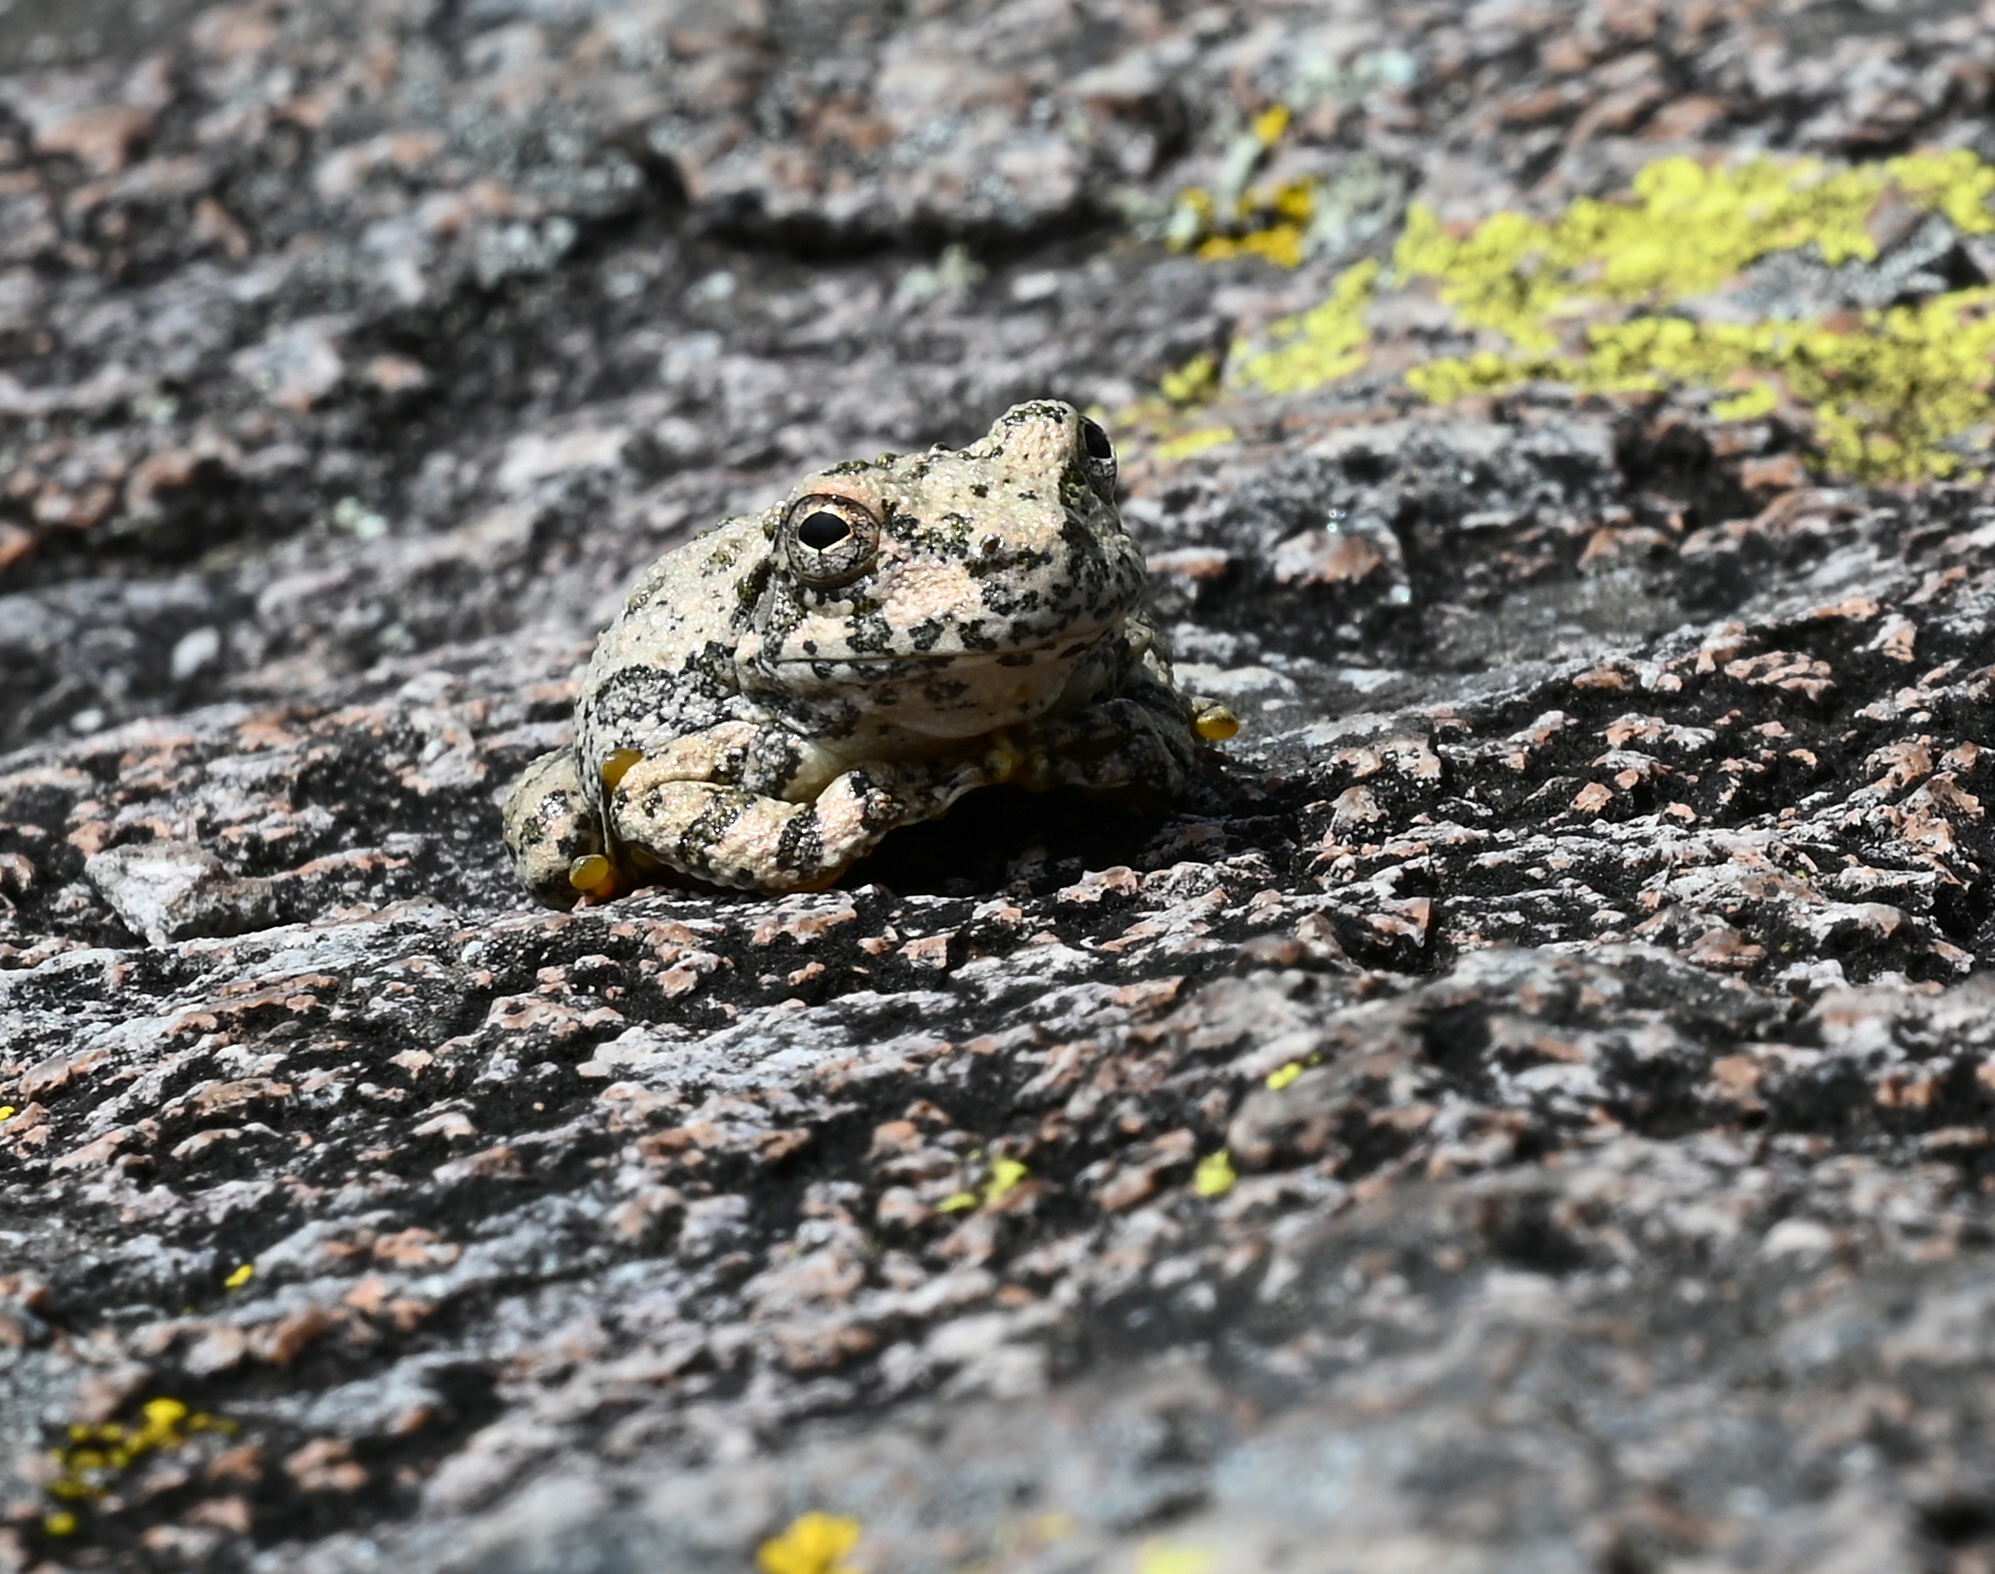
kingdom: Animalia
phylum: Chordata
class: Amphibia
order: Anura
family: Hylidae
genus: Dryophytes
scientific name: Dryophytes arenicolor
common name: Canyon treefrog
